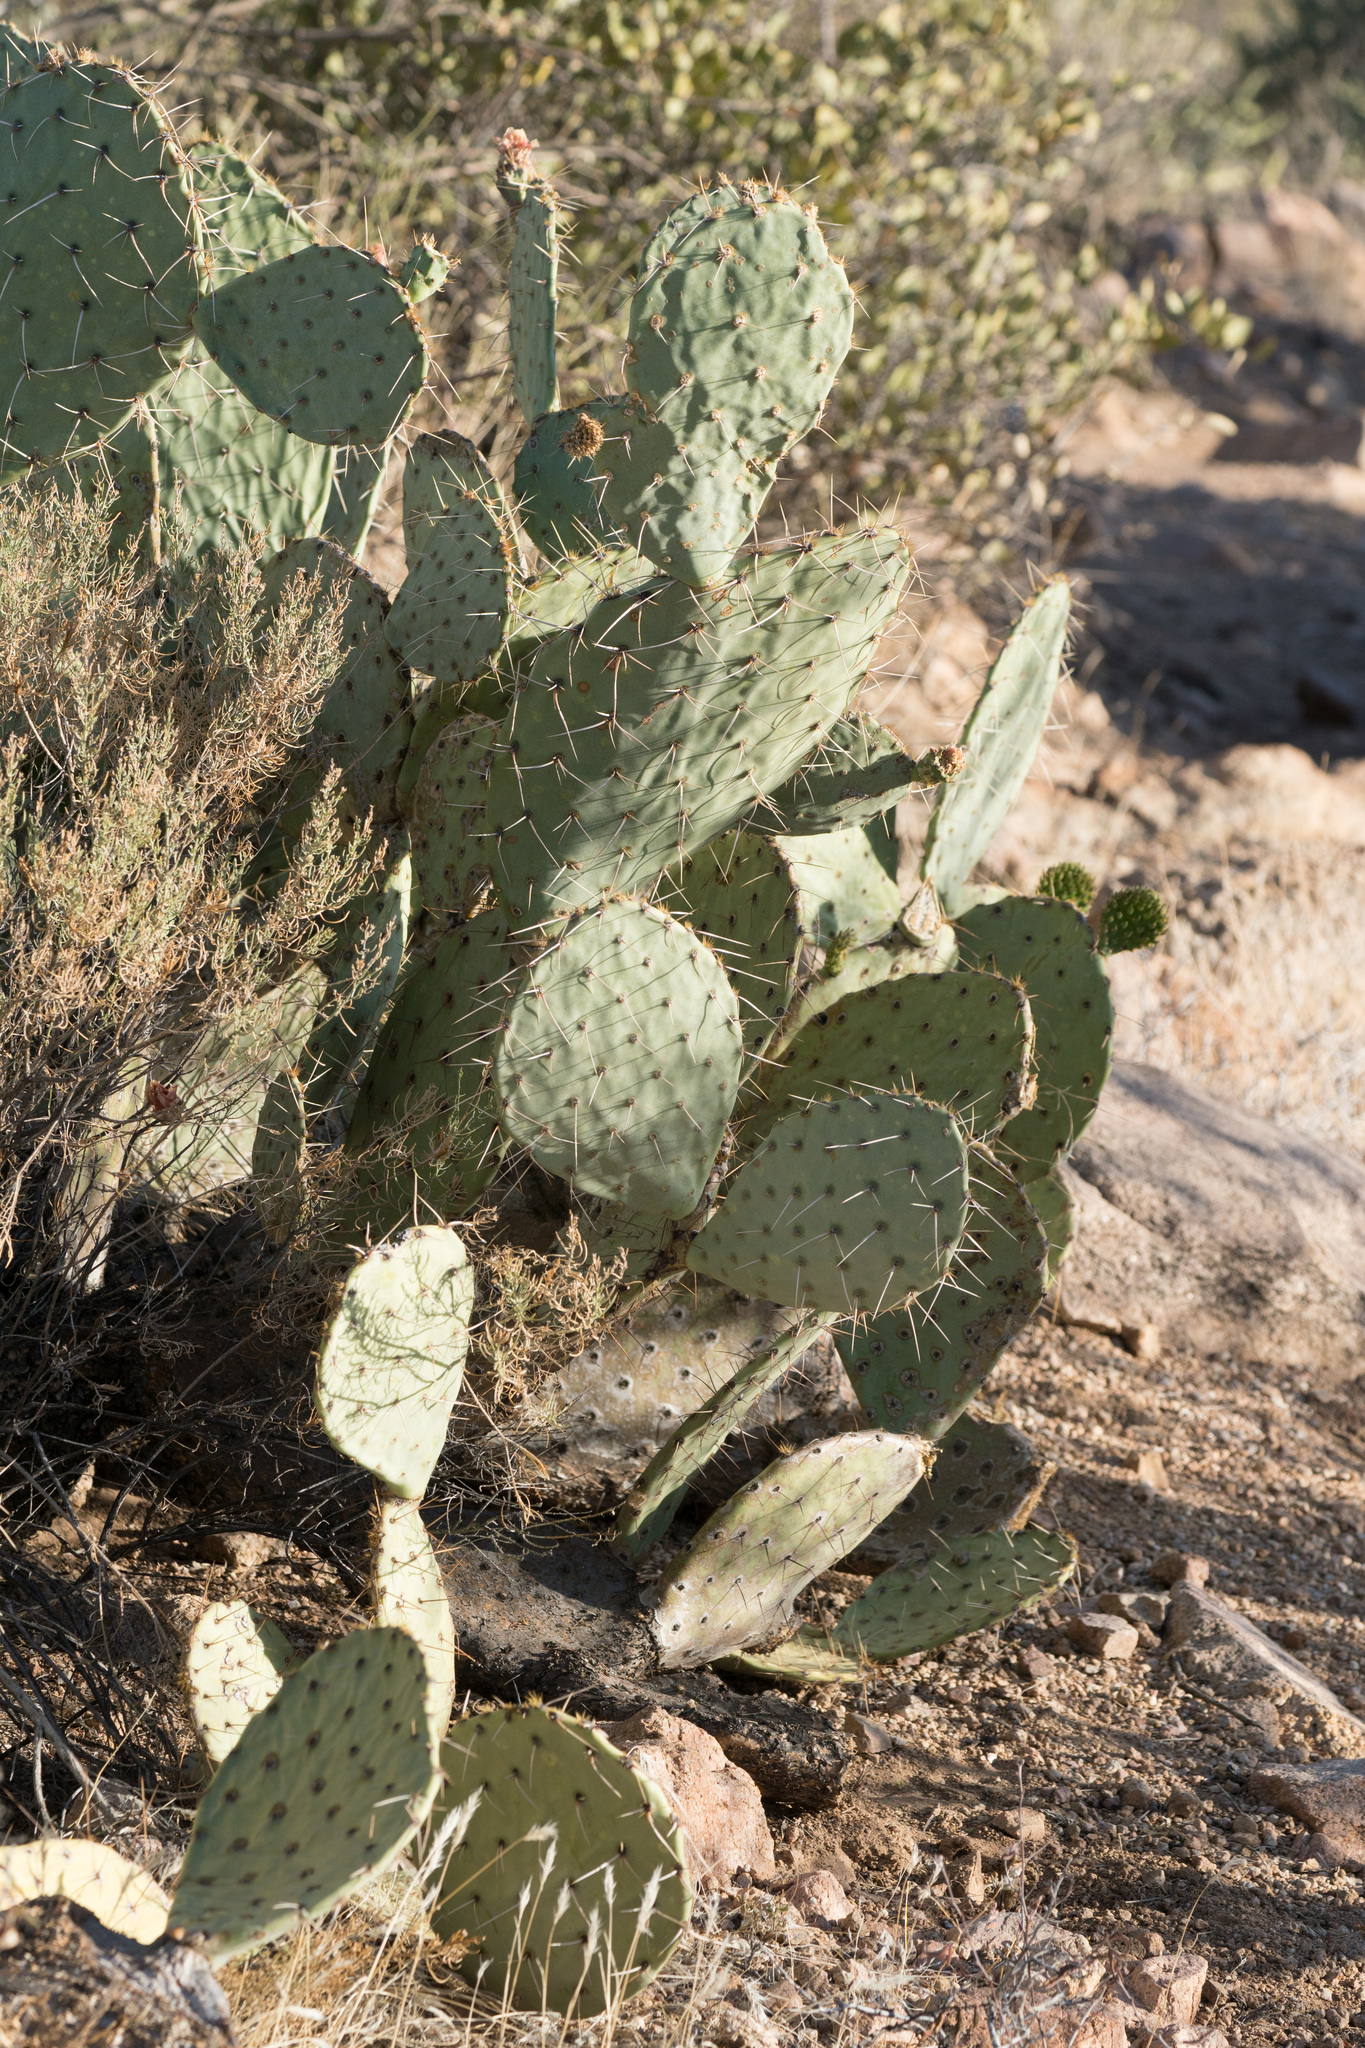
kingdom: Plantae
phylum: Tracheophyta
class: Magnoliopsida
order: Caryophyllales
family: Cactaceae
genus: Opuntia
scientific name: Opuntia engelmannii
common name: Cactus-apple
